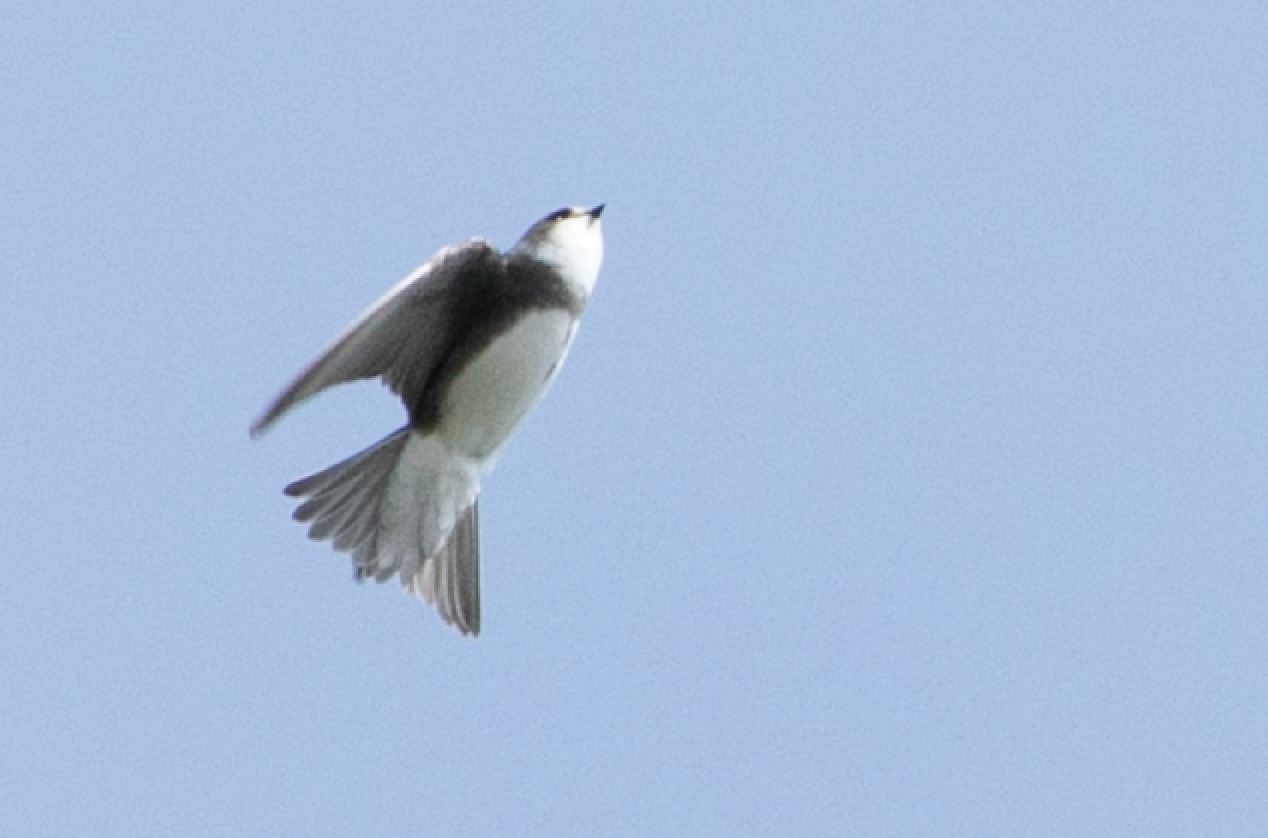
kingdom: Animalia
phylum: Chordata
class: Aves
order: Passeriformes
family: Hirundinidae
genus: Riparia
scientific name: Riparia riparia
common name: Sand martin
